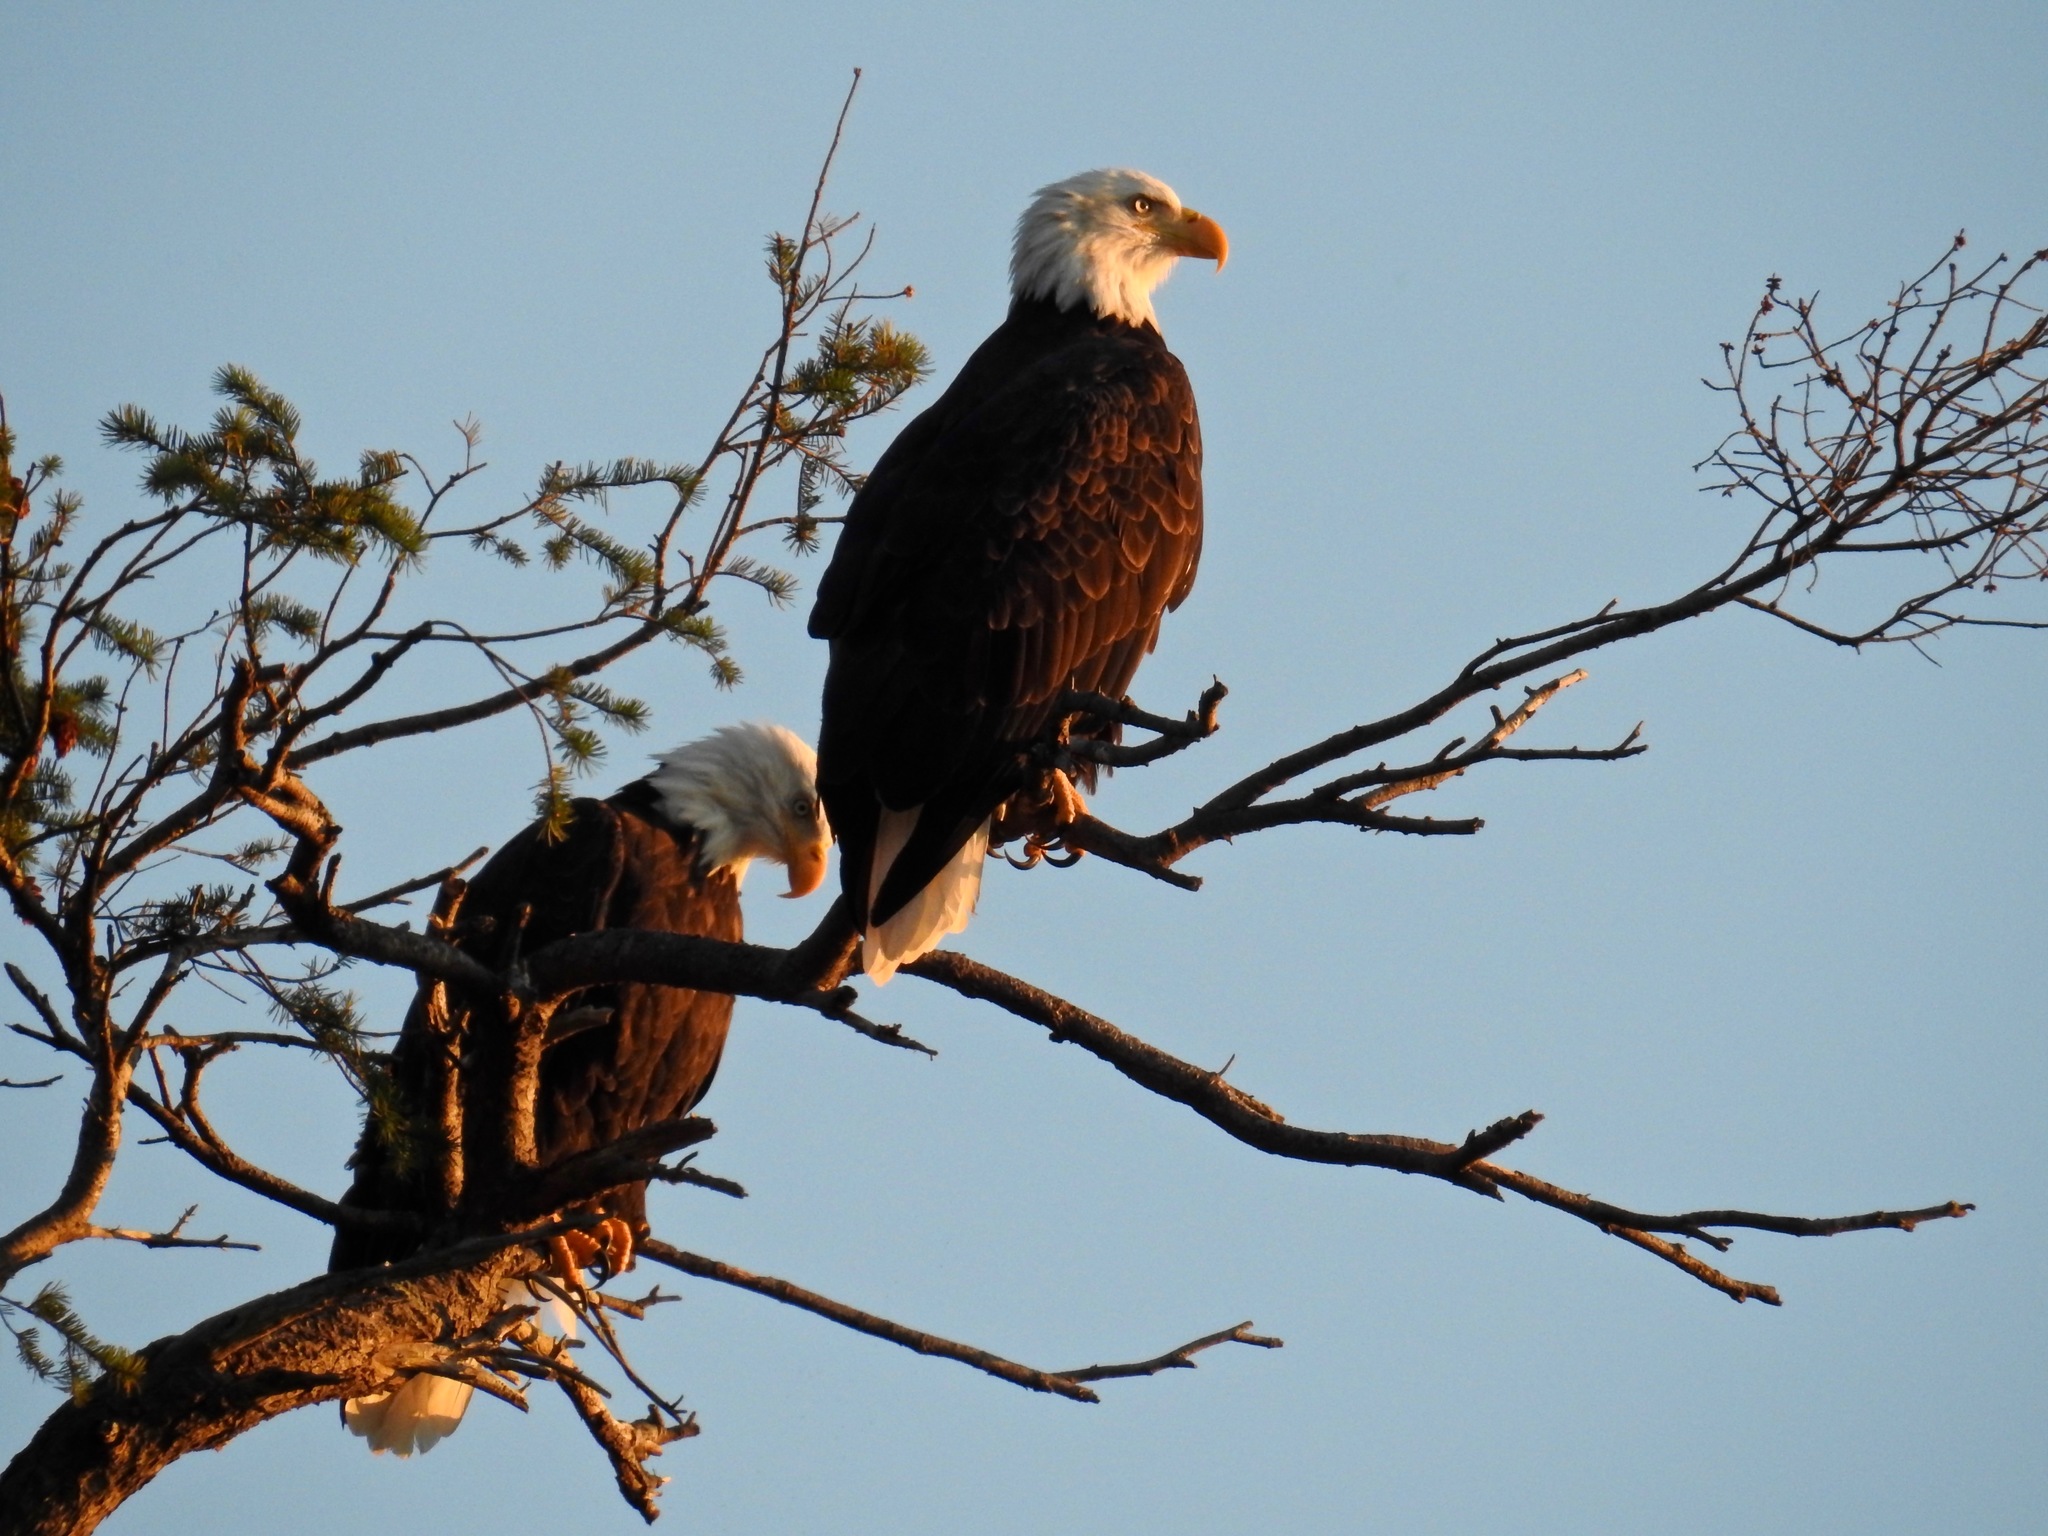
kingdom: Animalia
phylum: Chordata
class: Aves
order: Accipitriformes
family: Accipitridae
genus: Haliaeetus
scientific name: Haliaeetus leucocephalus
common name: Bald eagle
